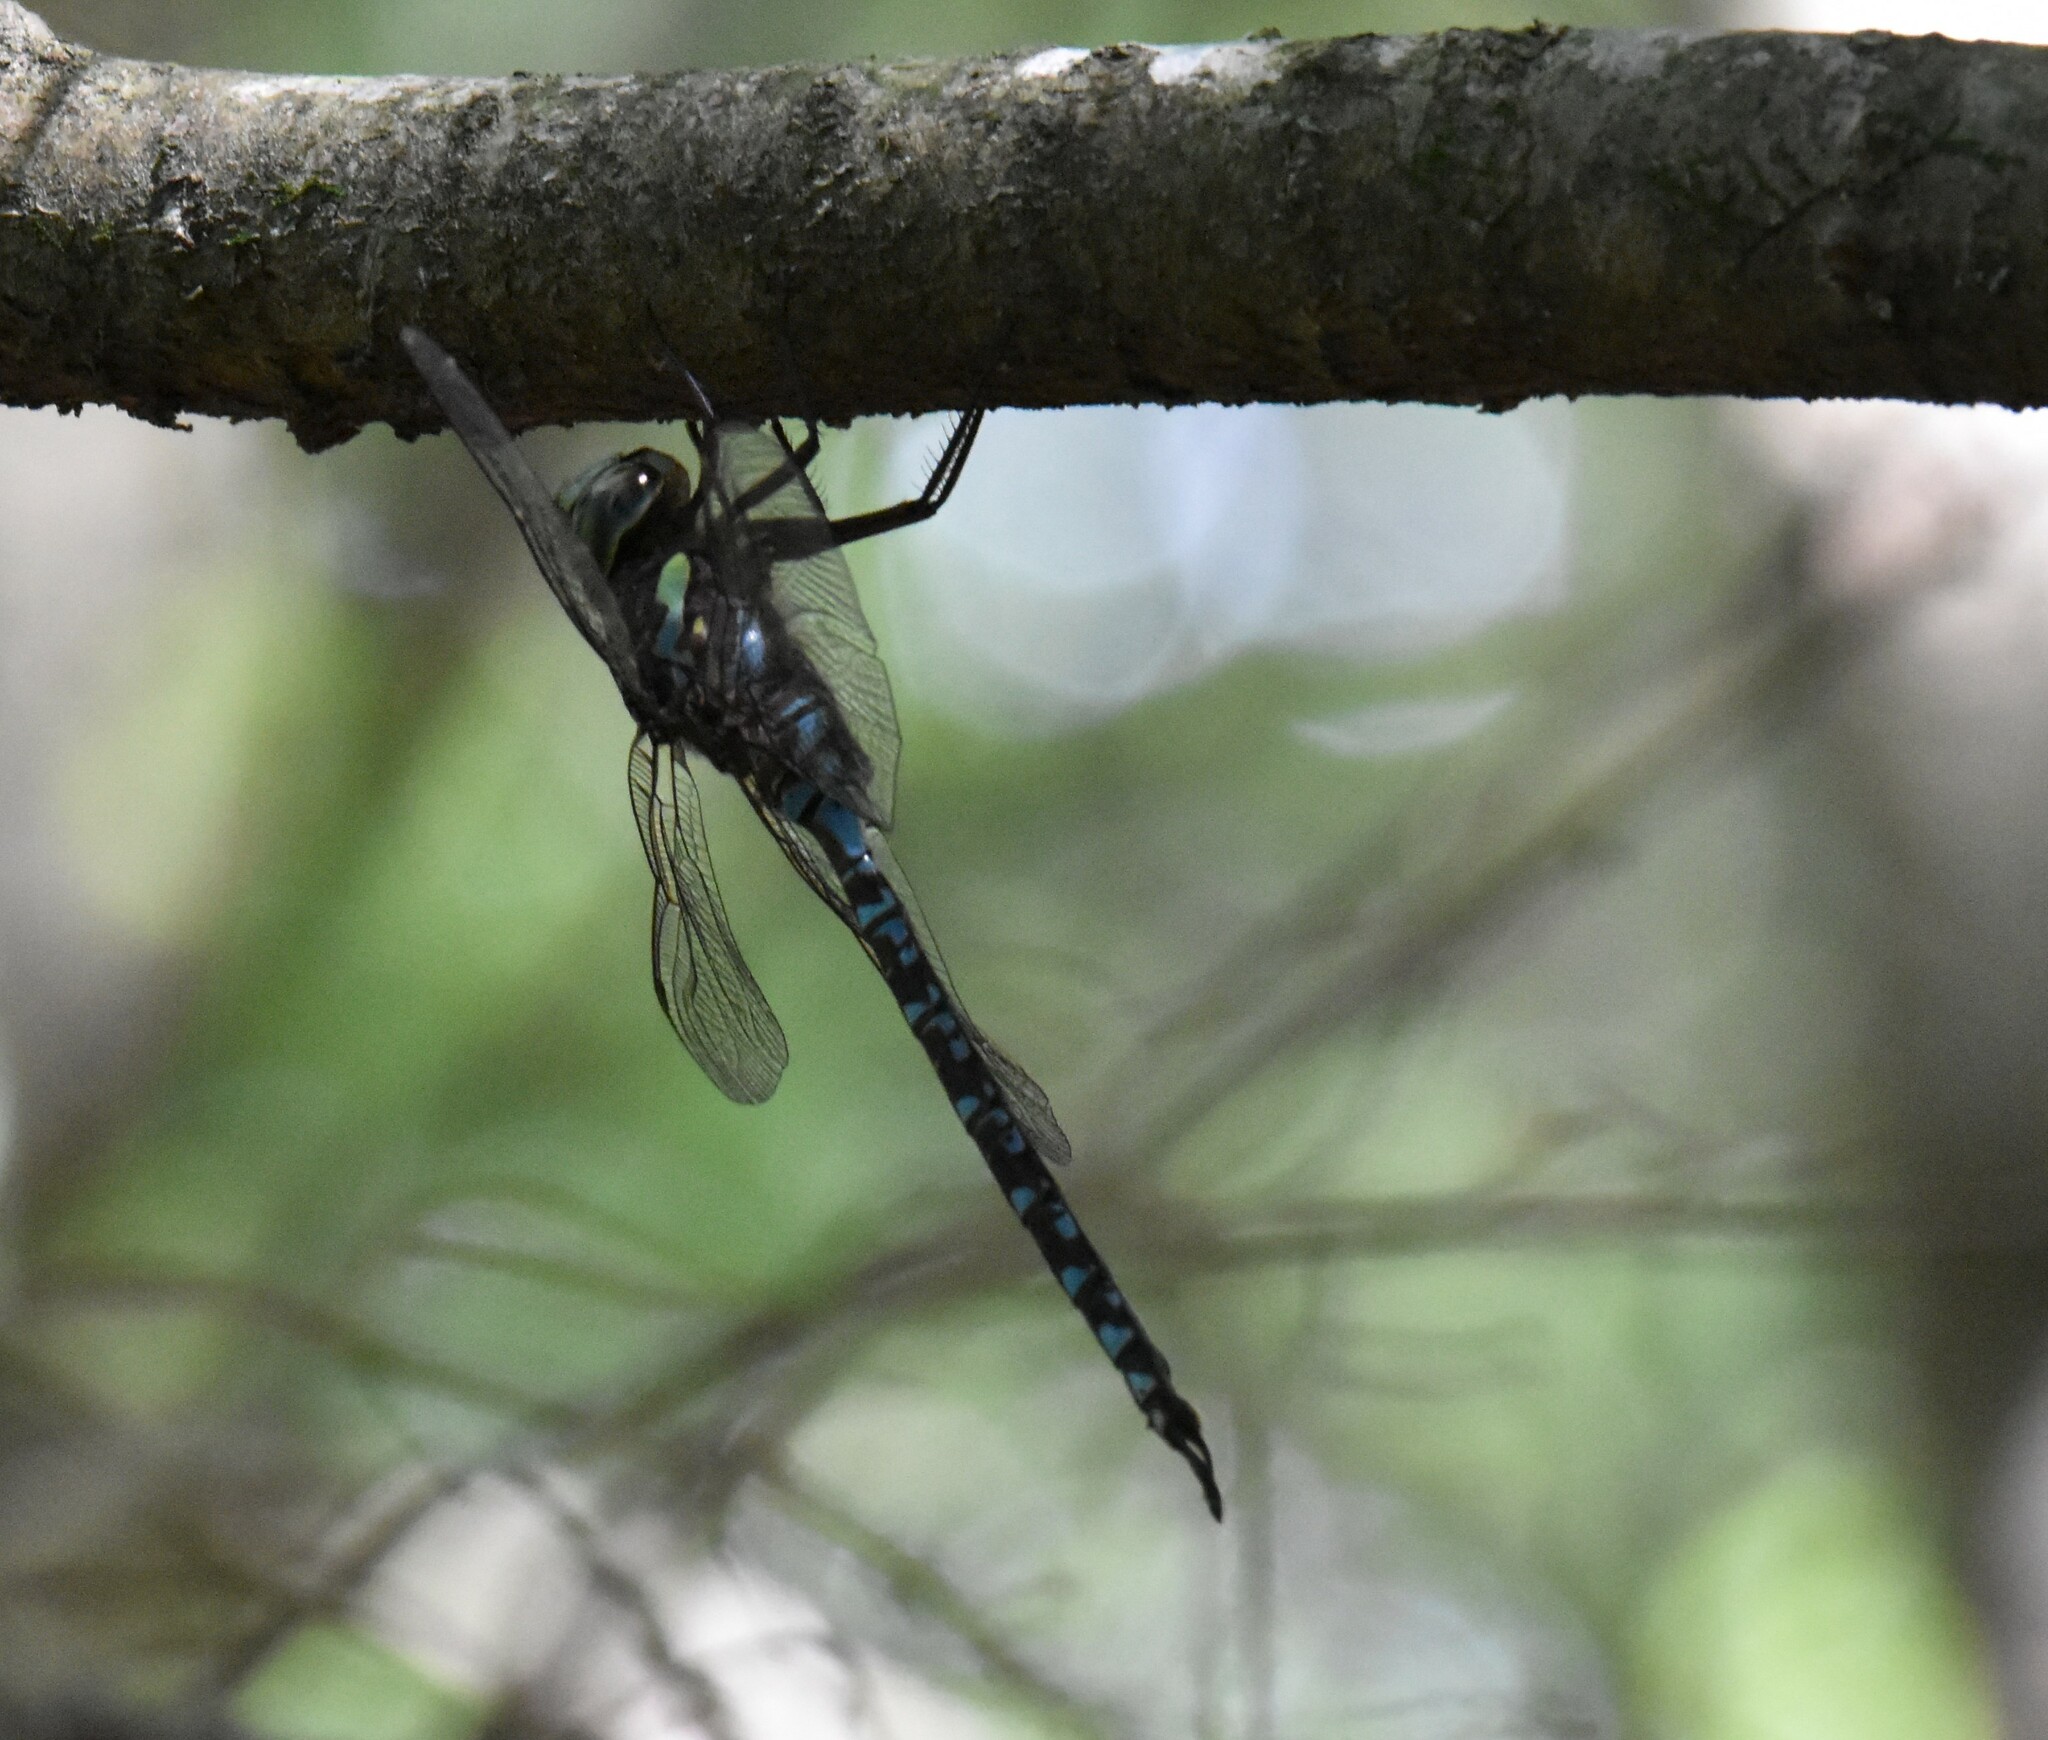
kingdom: Animalia
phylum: Arthropoda
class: Insecta
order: Odonata
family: Aeshnidae
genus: Aeshna
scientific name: Aeshna canadensis
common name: Canada darner
